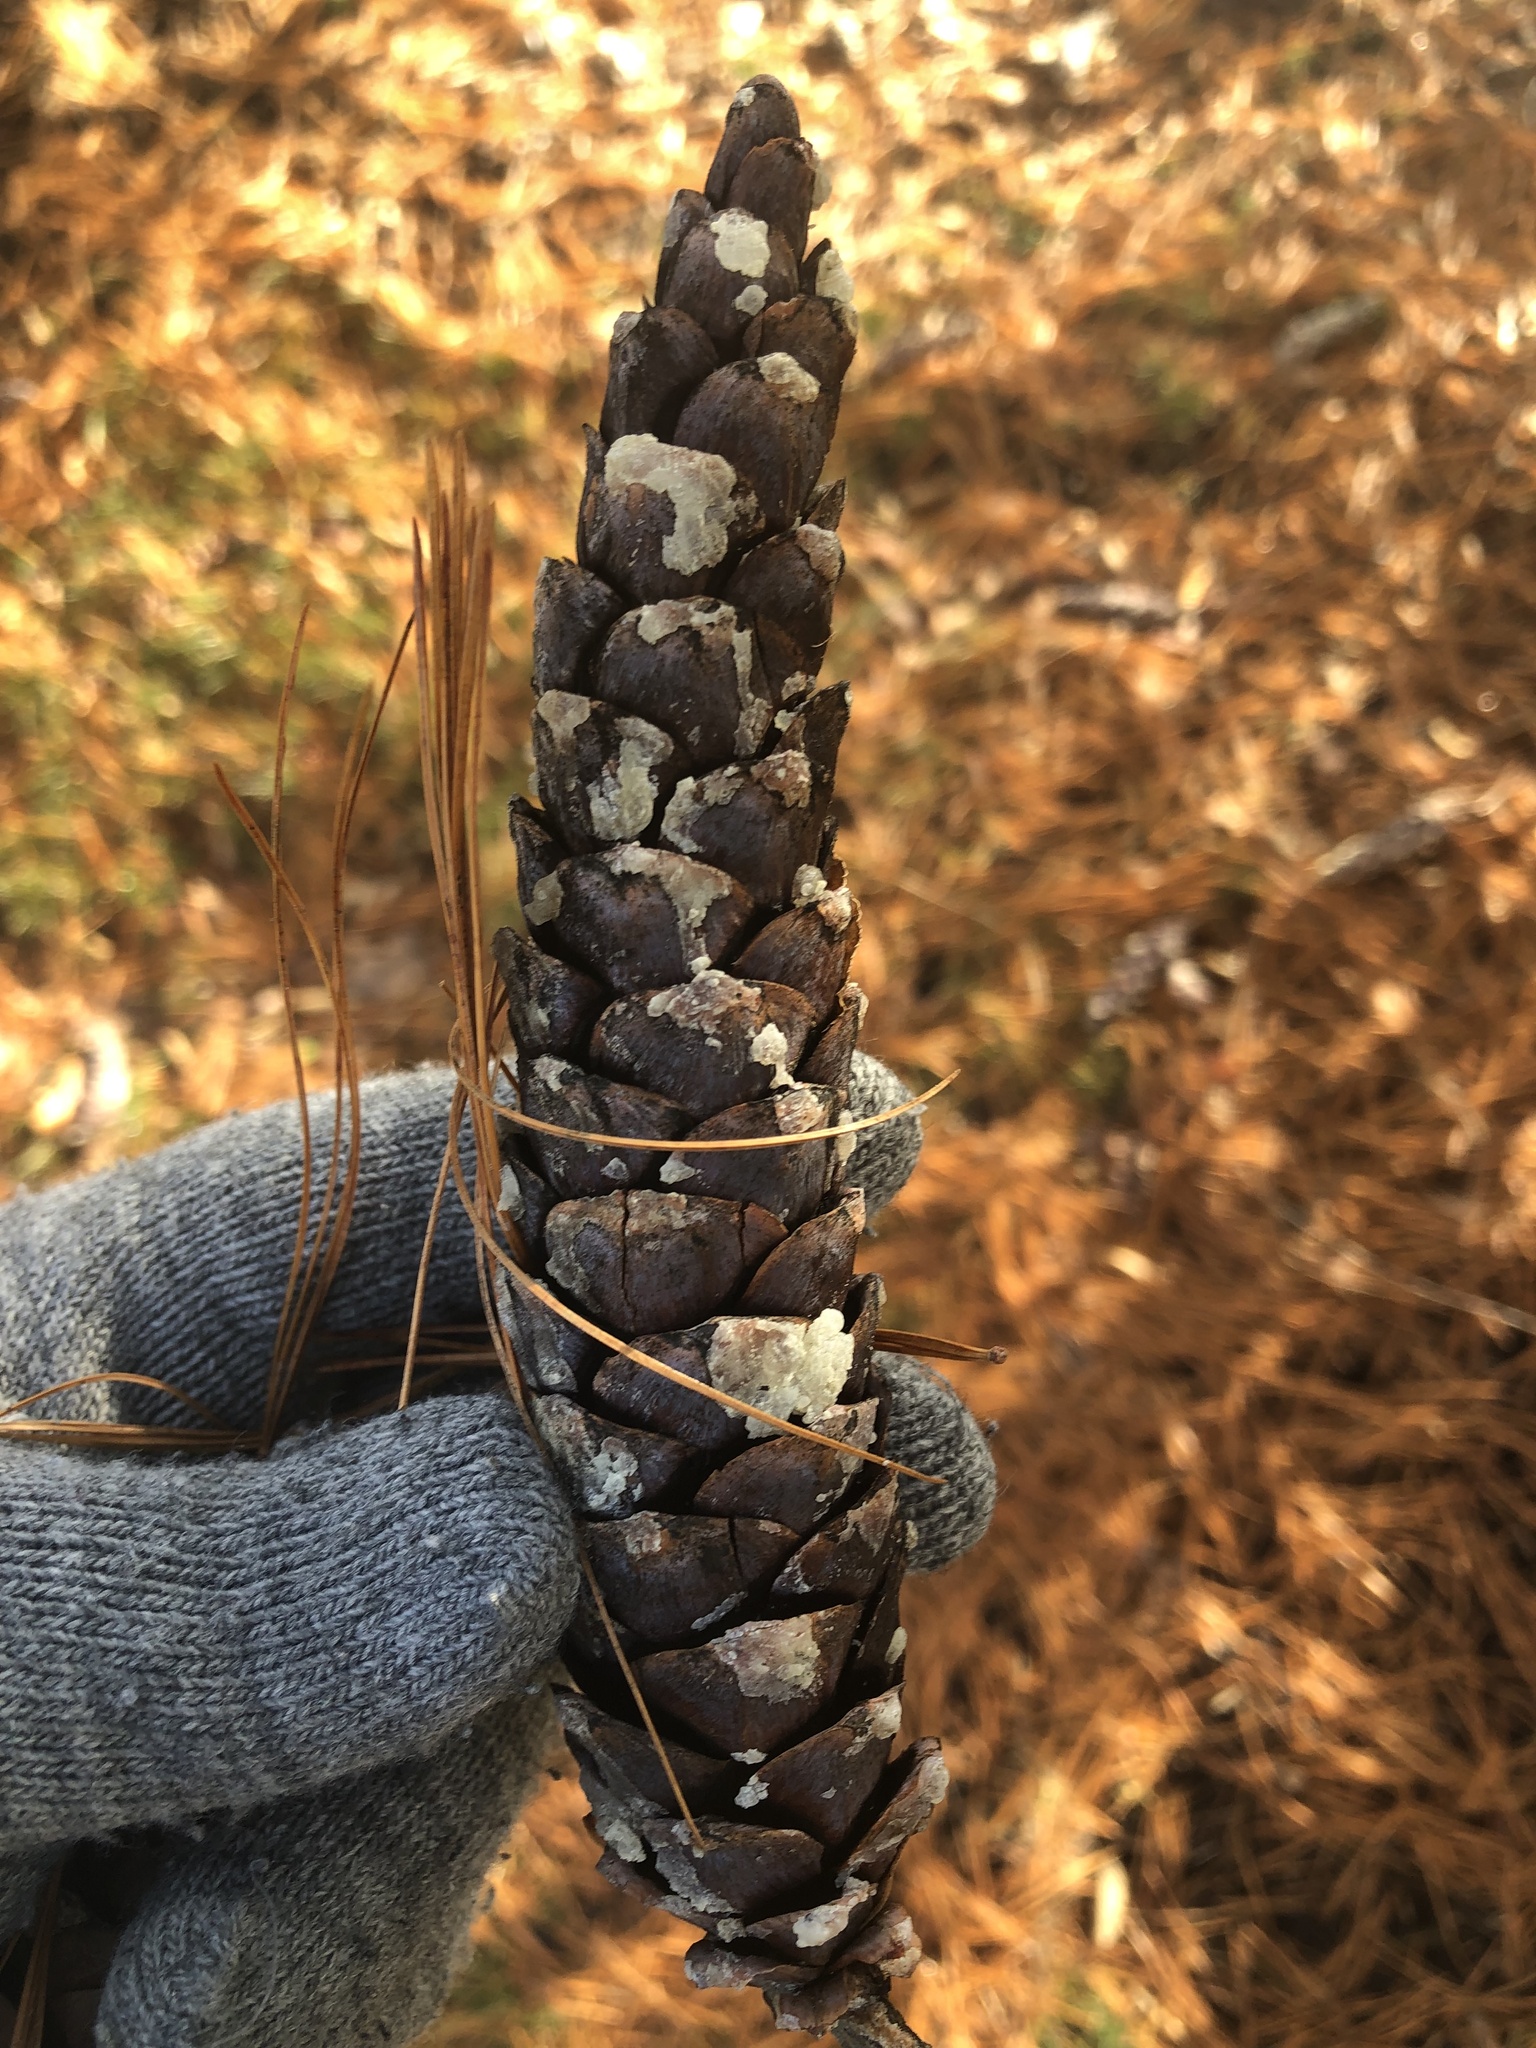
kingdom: Plantae
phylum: Tracheophyta
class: Pinopsida
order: Pinales
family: Pinaceae
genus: Pinus
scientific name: Pinus strobus
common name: Weymouth pine
